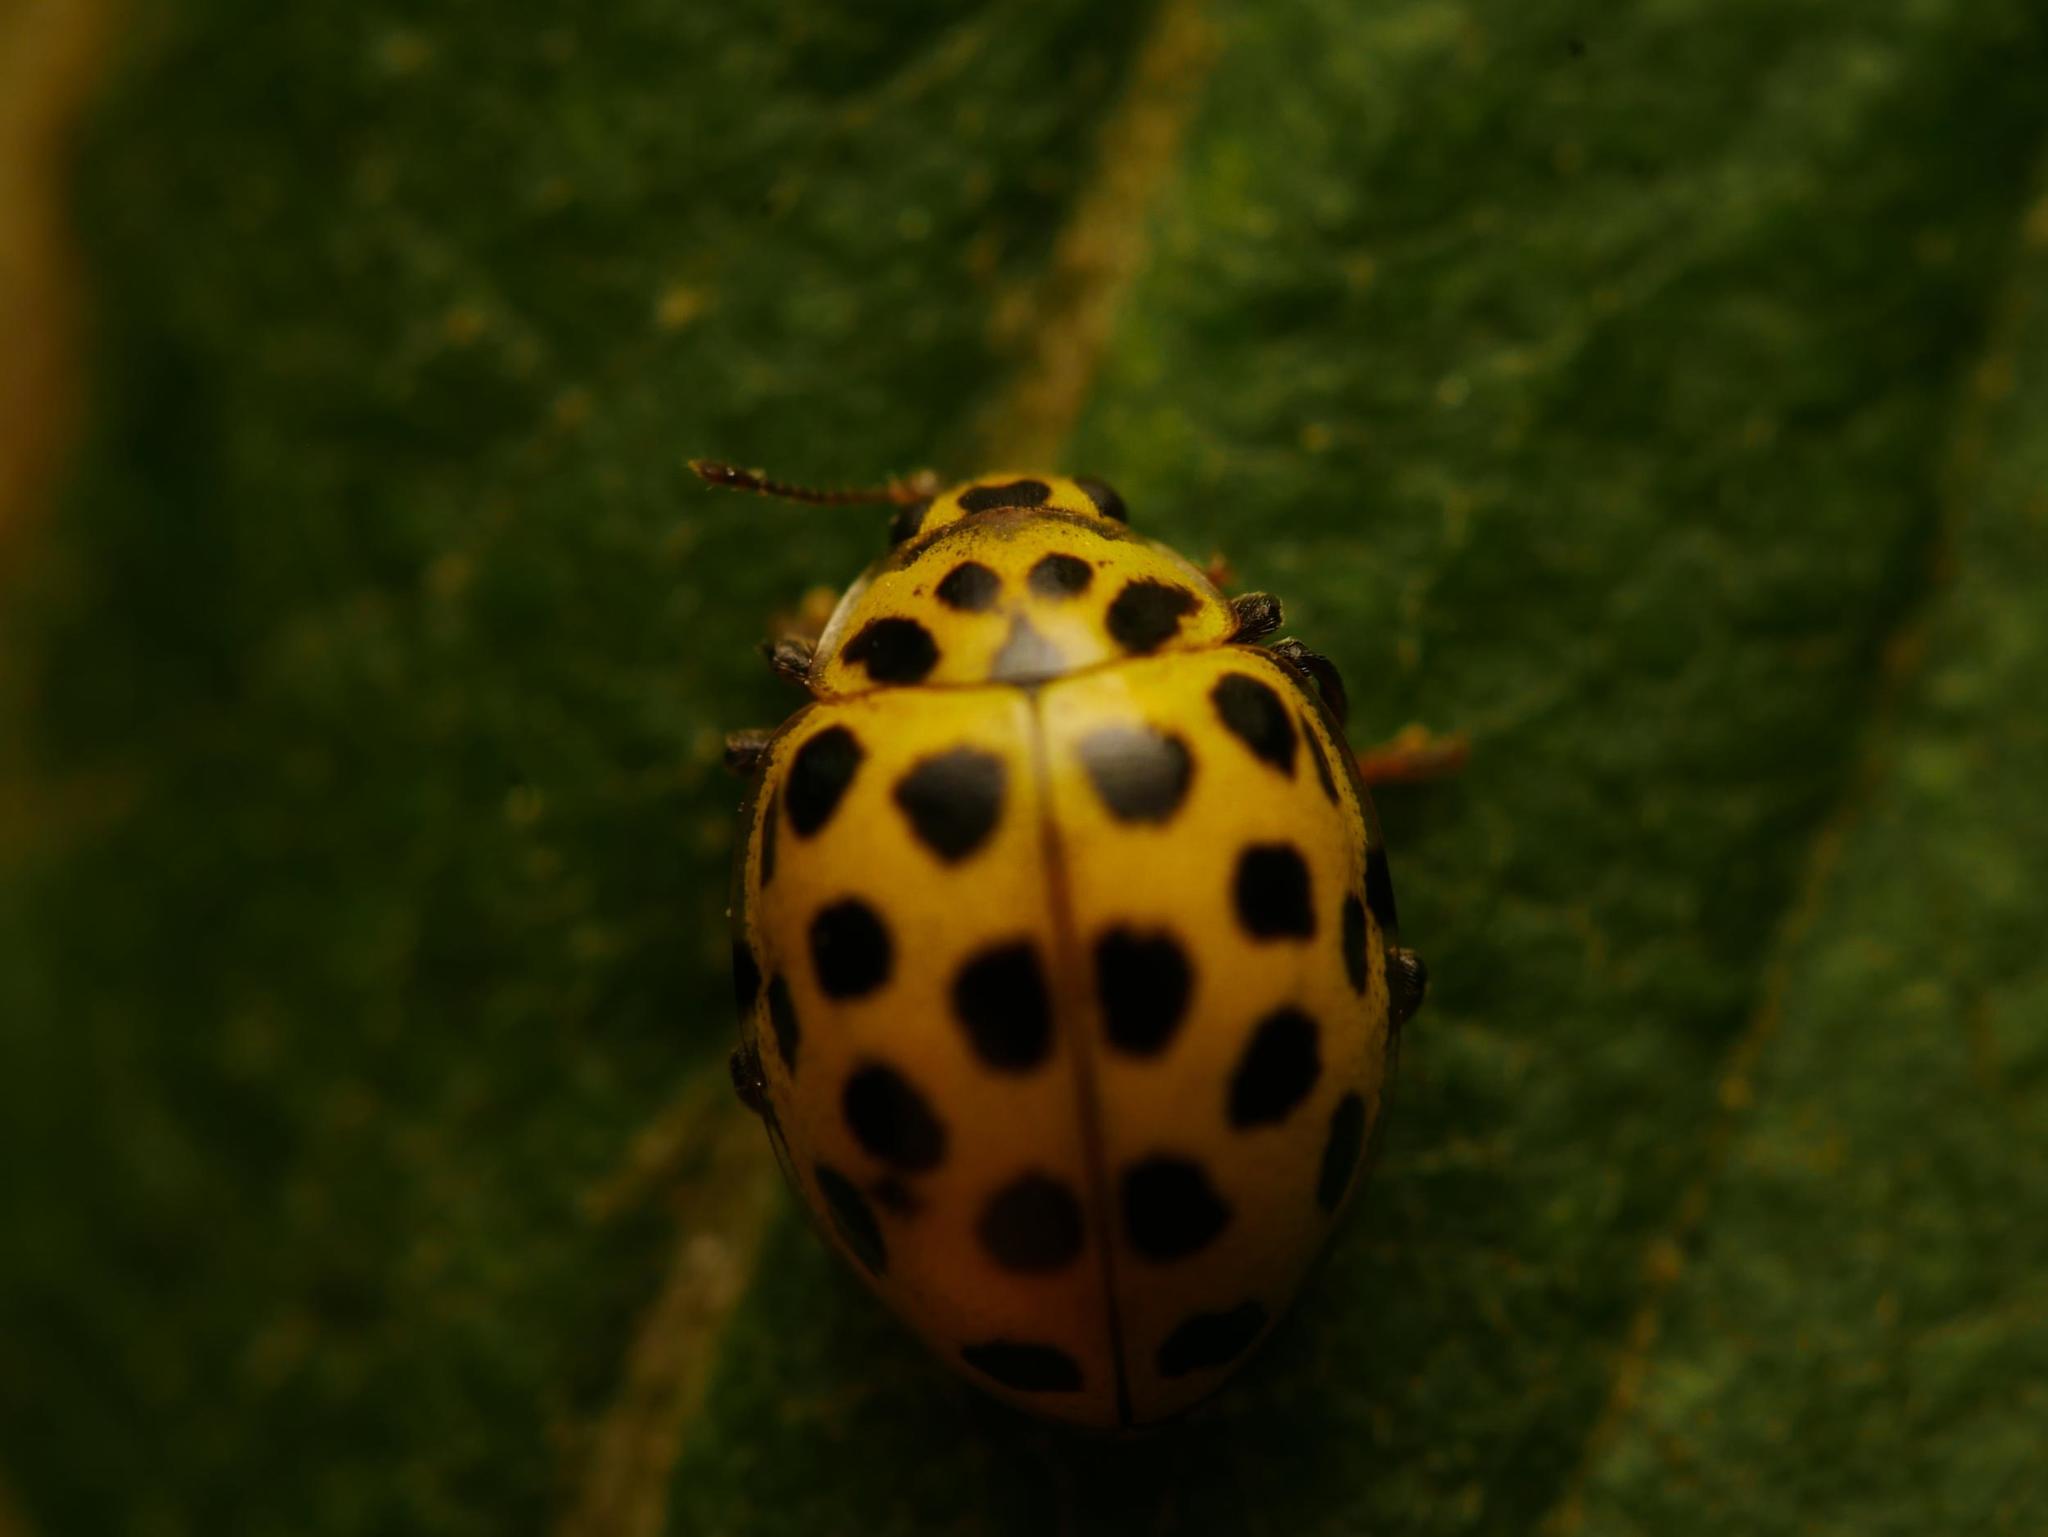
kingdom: Animalia
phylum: Arthropoda
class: Insecta
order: Coleoptera
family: Coccinellidae
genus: Psyllobora
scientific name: Psyllobora vigintiduopunctata
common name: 22-spot ladybird
